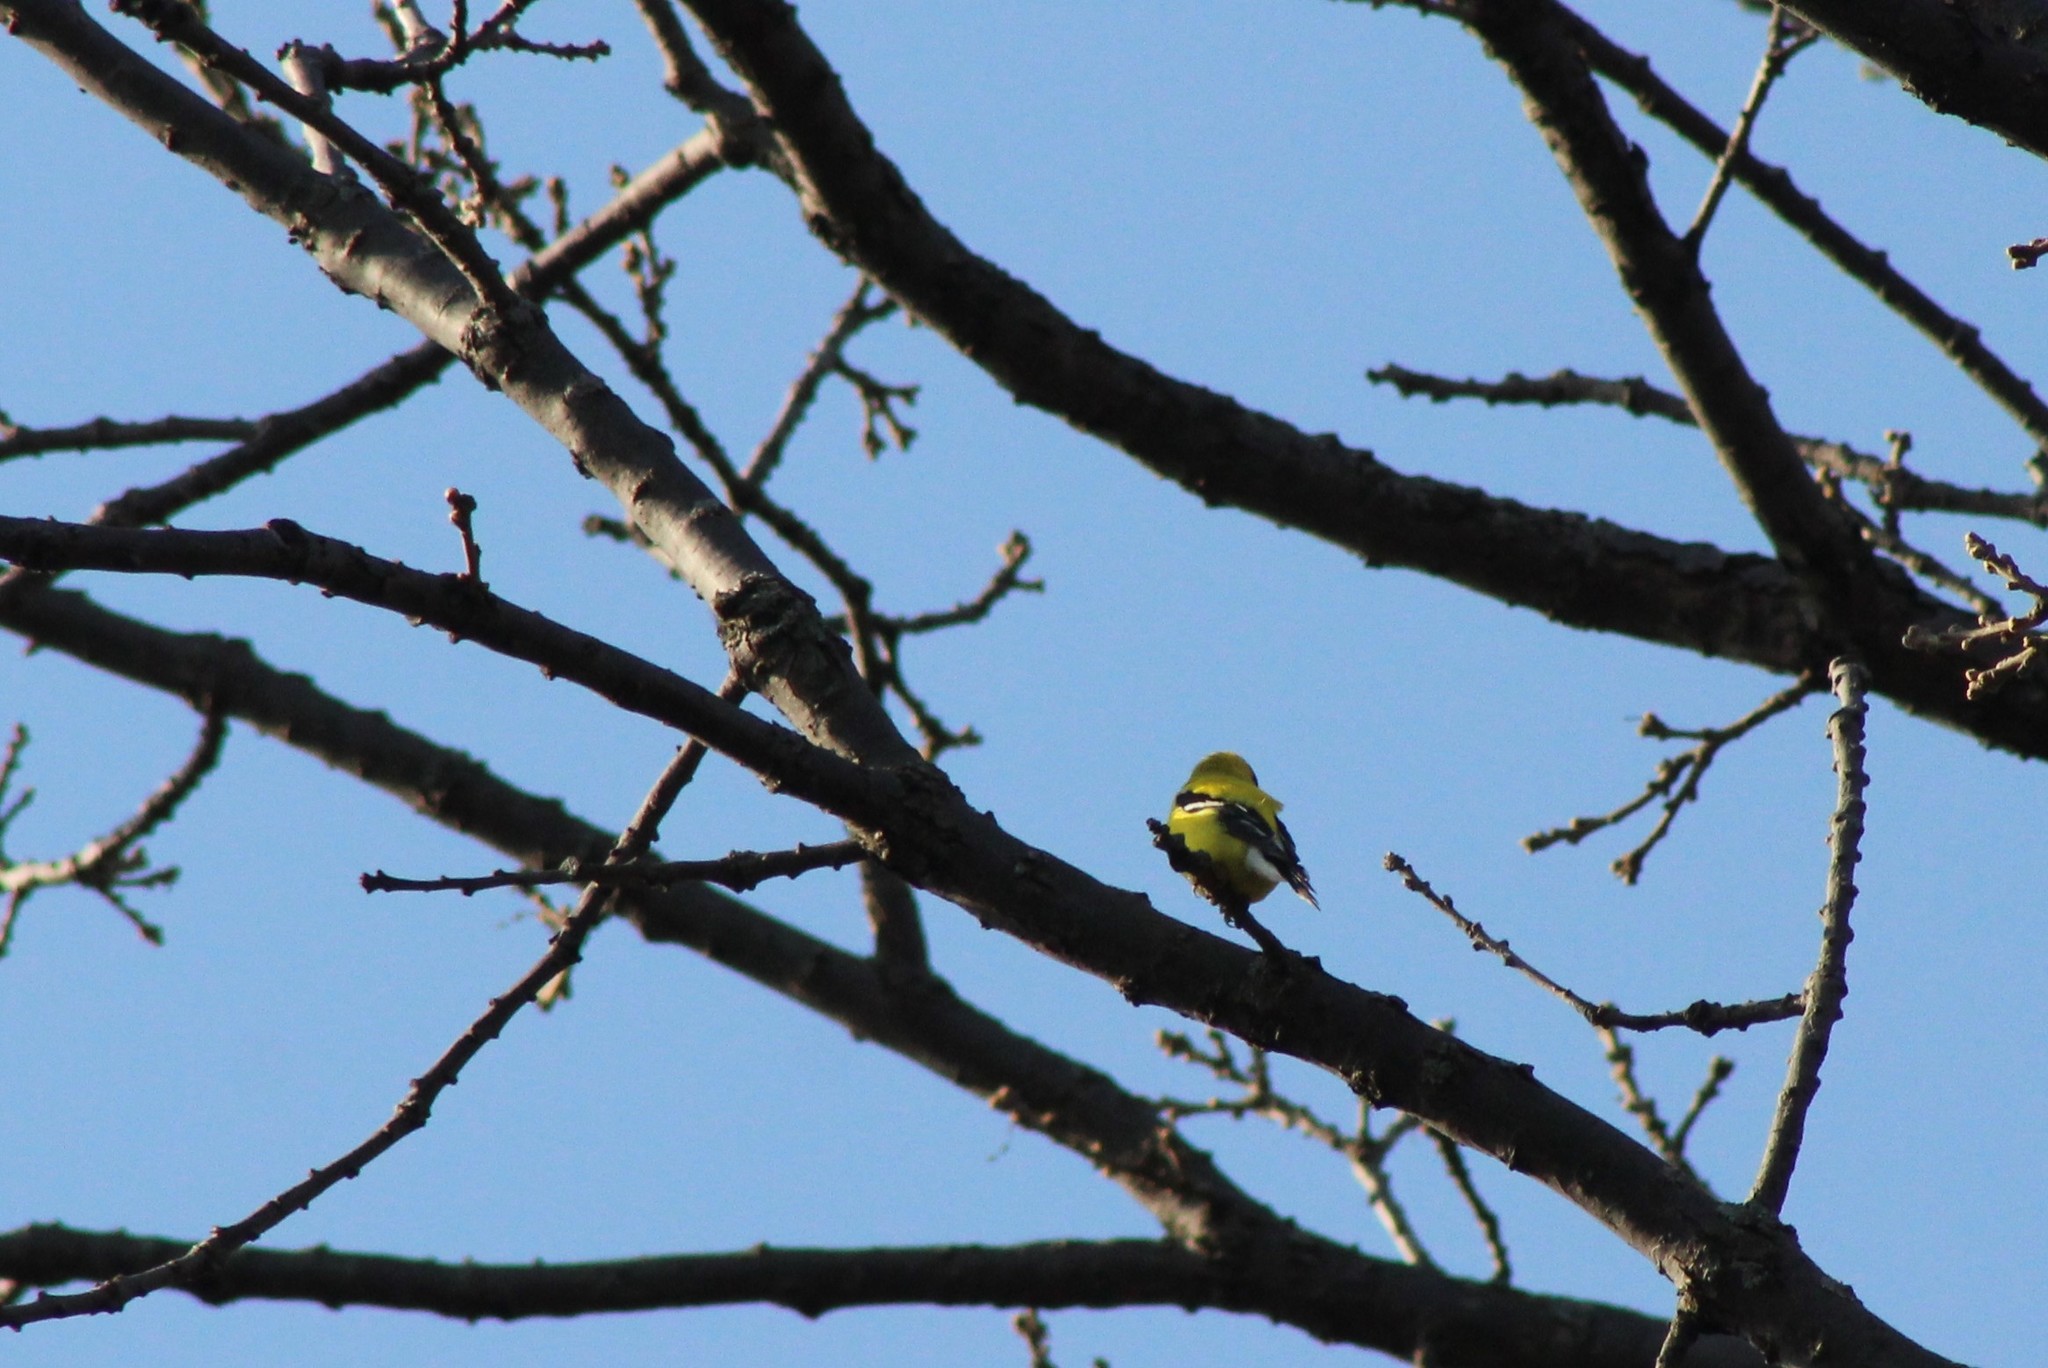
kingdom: Animalia
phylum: Chordata
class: Aves
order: Passeriformes
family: Fringillidae
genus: Spinus
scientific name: Spinus tristis
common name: American goldfinch
